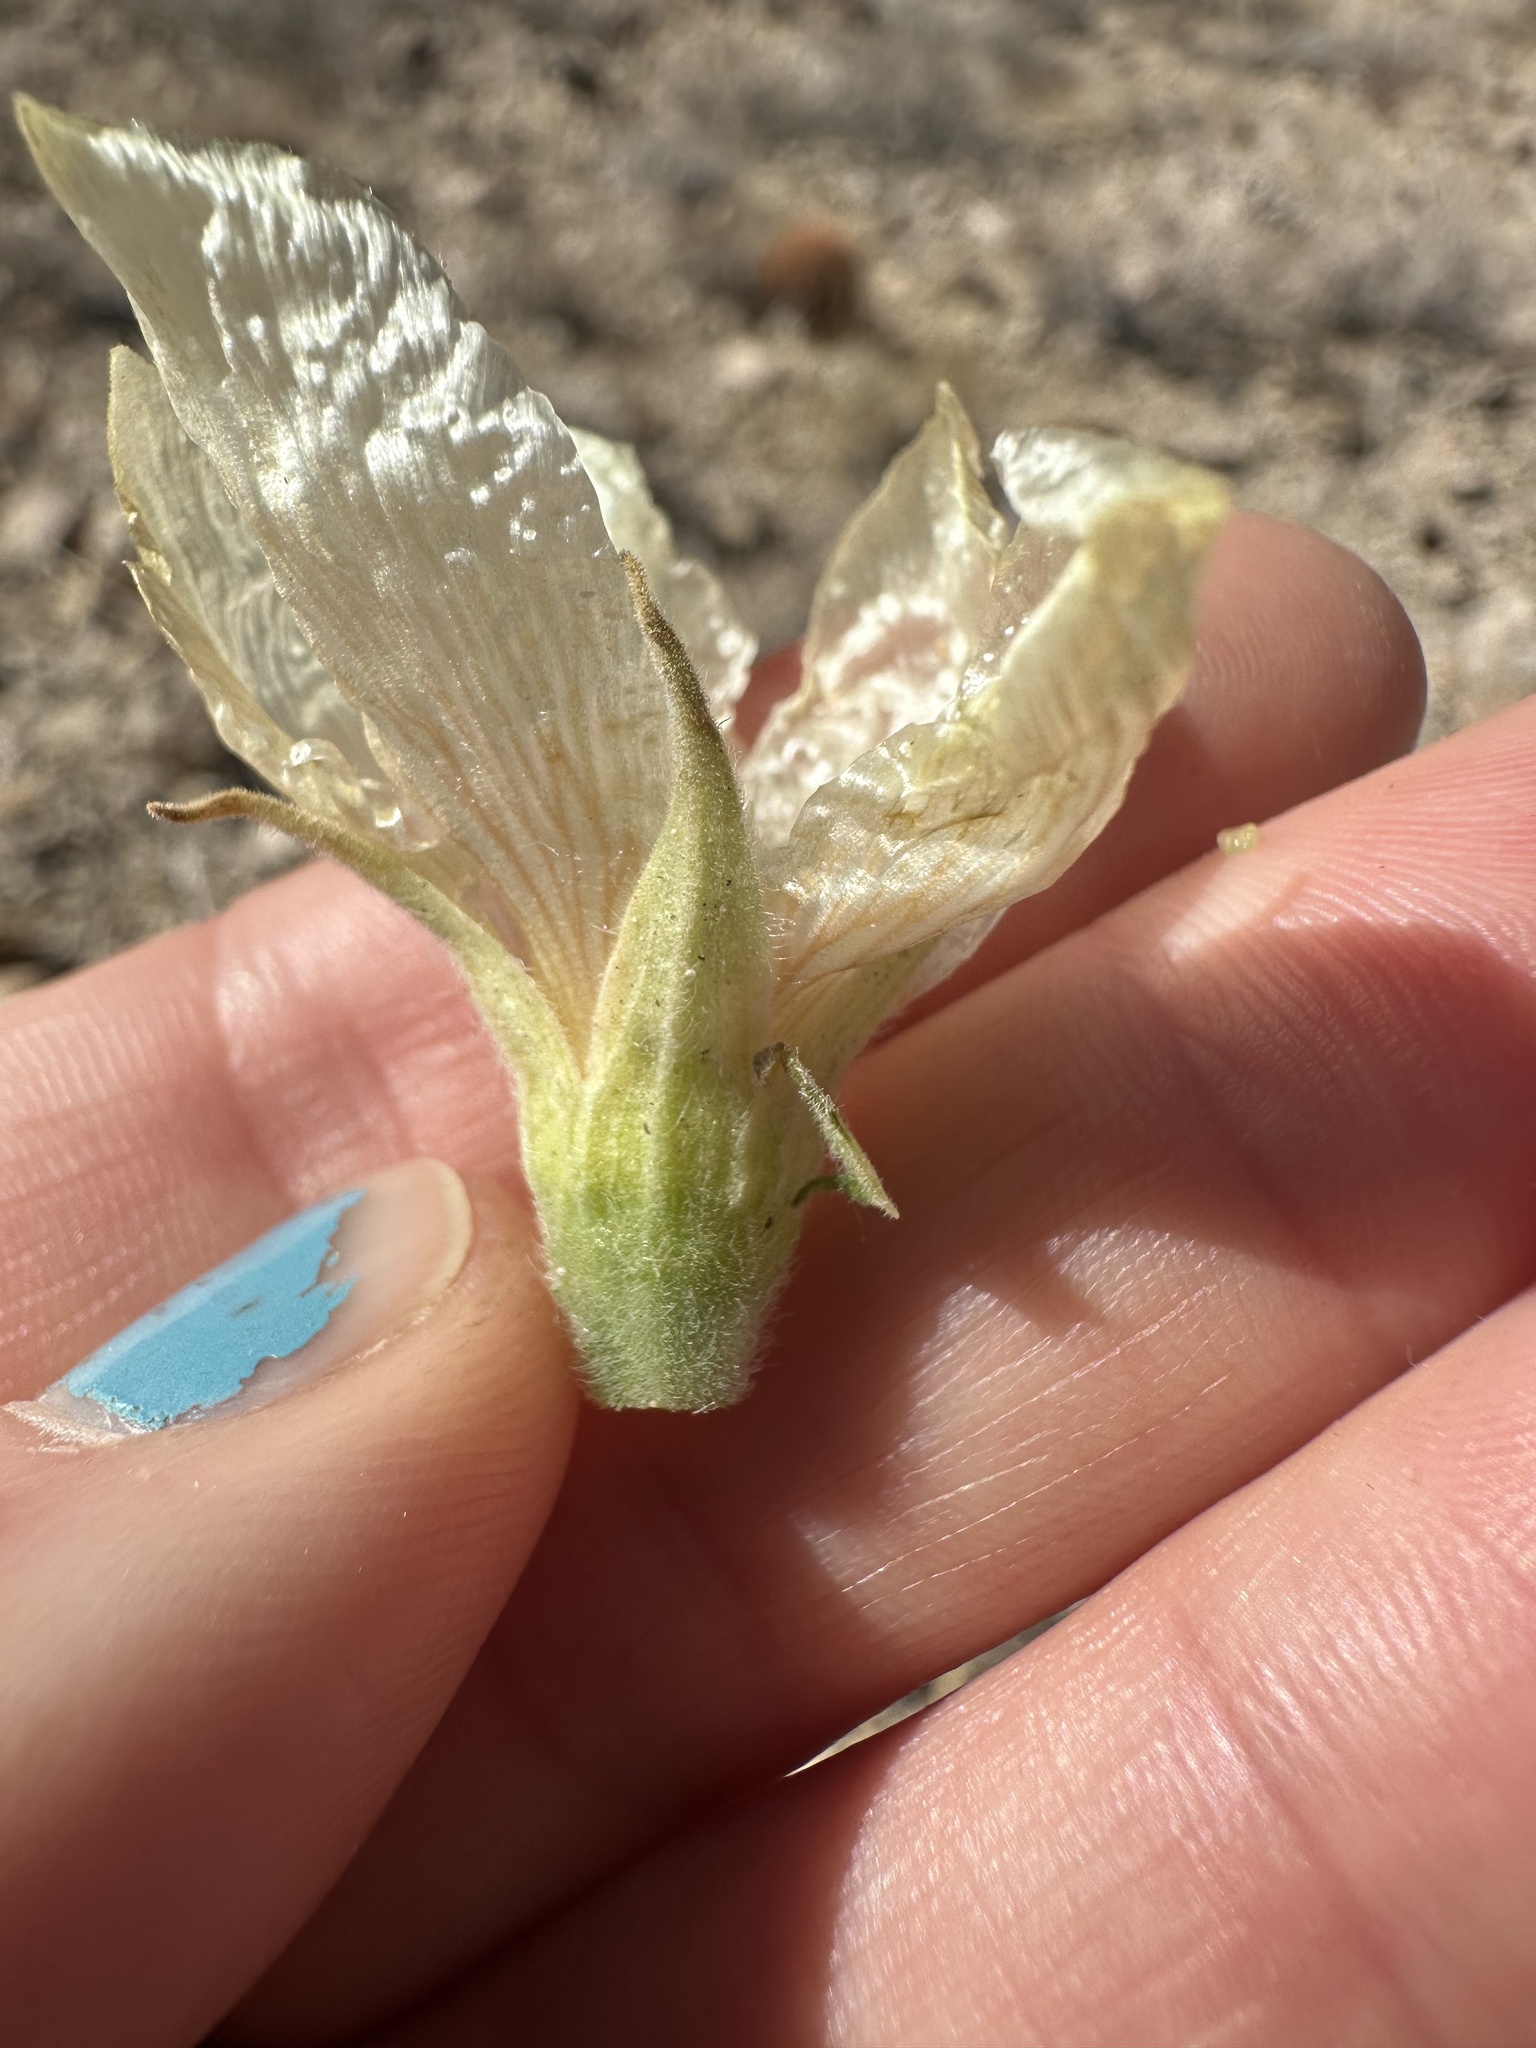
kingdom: Plantae
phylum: Tracheophyta
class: Magnoliopsida
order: Cornales
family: Loasaceae
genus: Mentzelia
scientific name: Mentzelia involucrata
